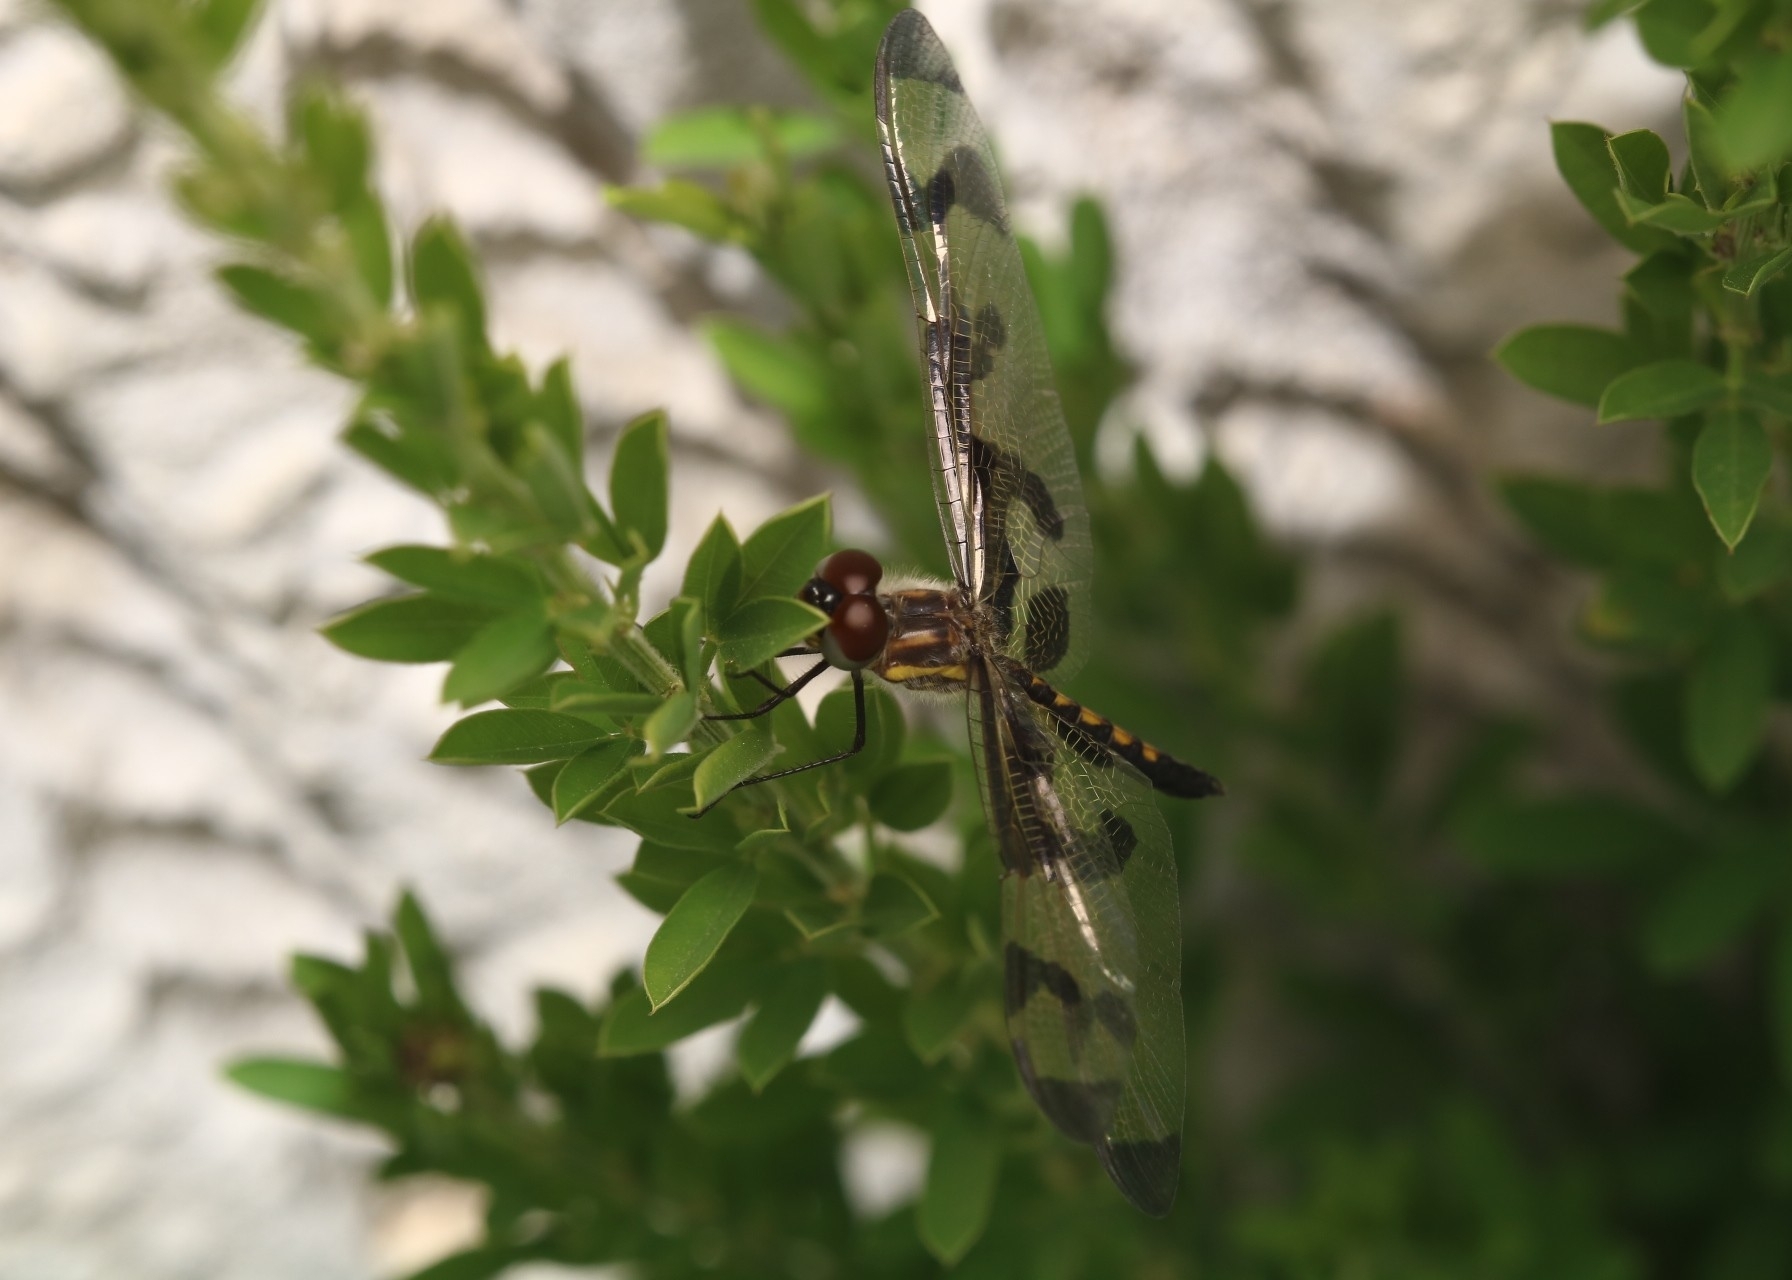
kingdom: Animalia
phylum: Arthropoda
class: Insecta
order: Odonata
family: Libellulidae
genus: Celithemis
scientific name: Celithemis fasciata
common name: Banded pennant
